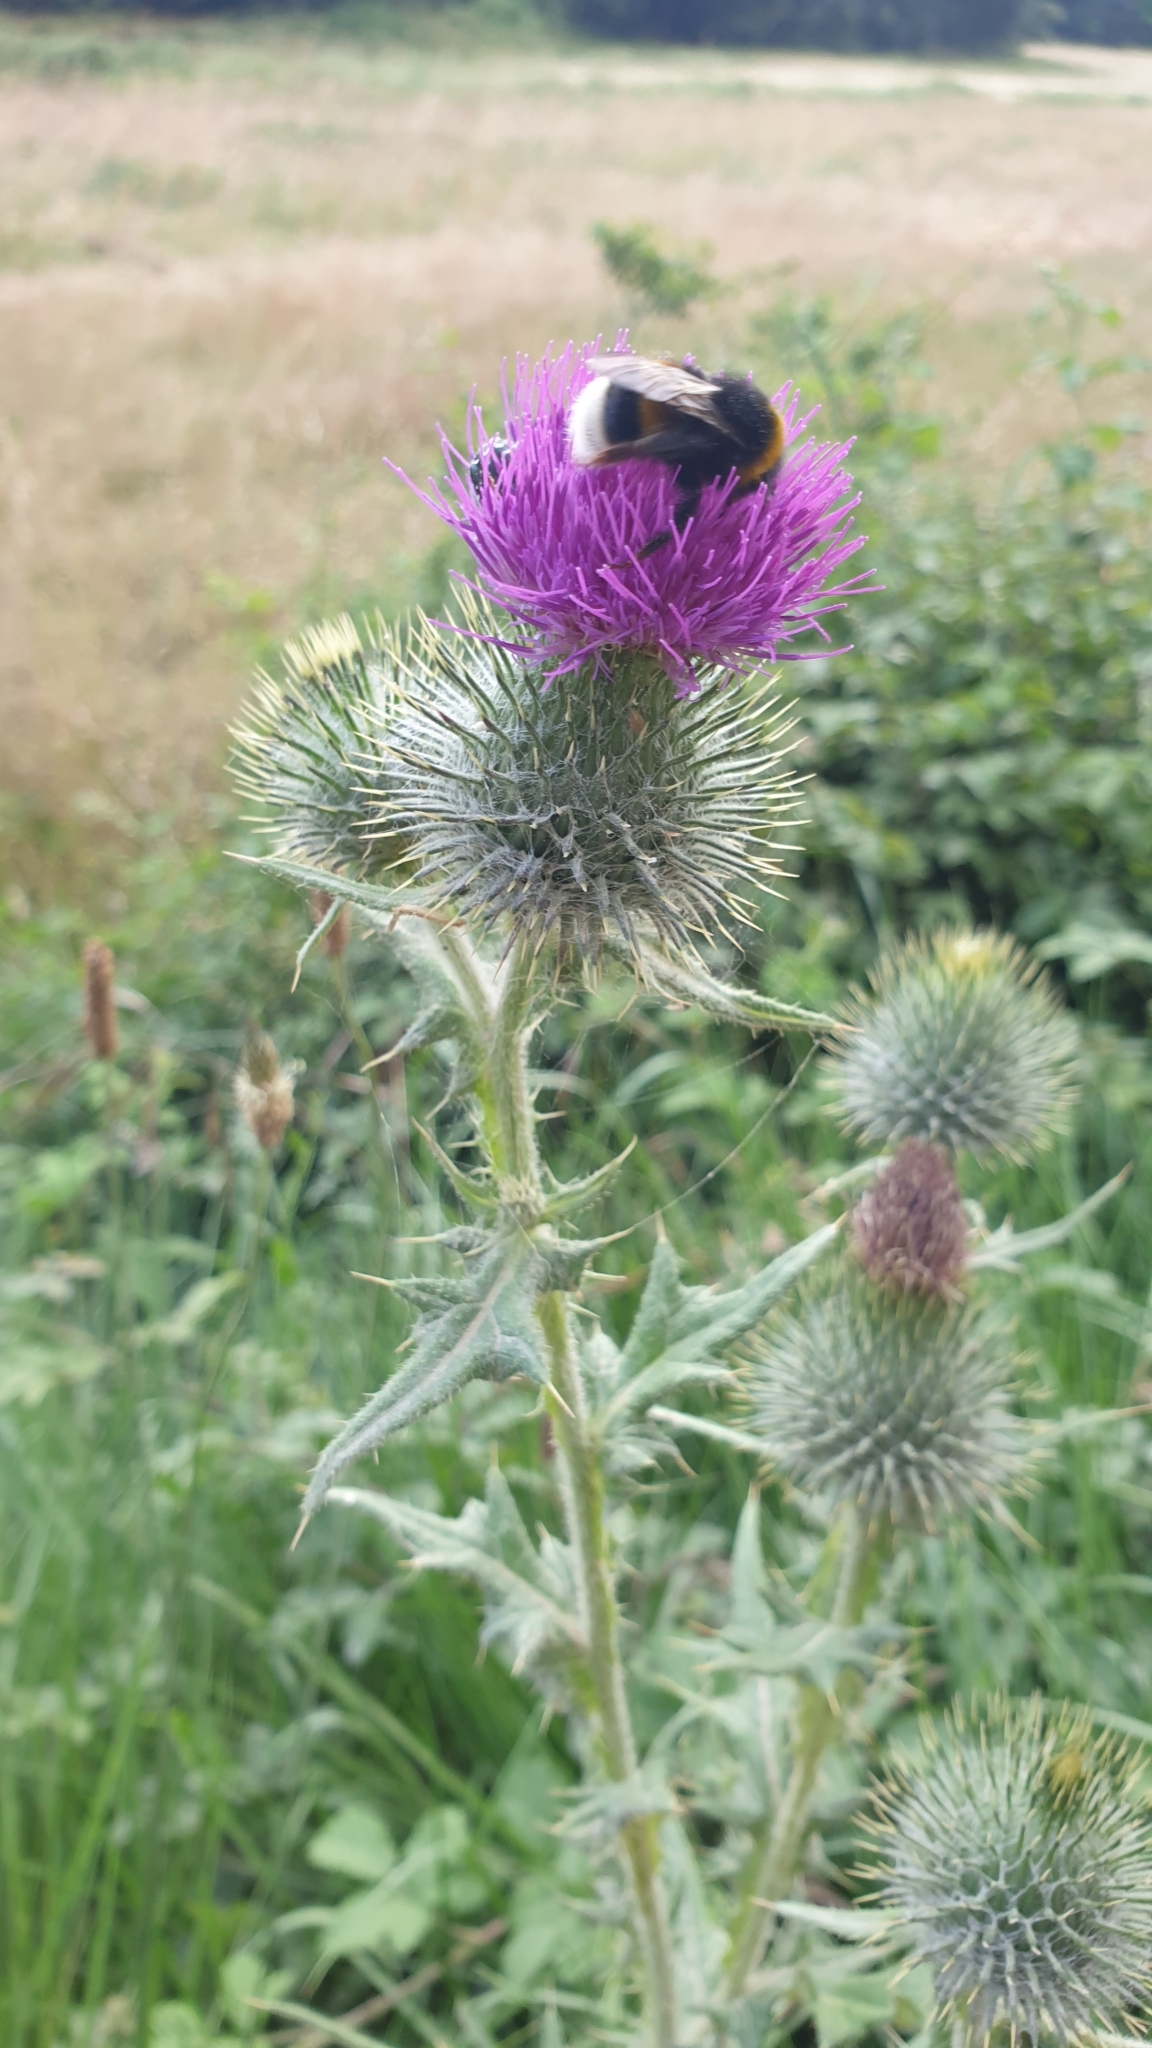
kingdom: Animalia
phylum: Arthropoda
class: Insecta
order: Hymenoptera
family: Apidae
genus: Bombus
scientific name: Bombus terrestris
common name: Buff-tailed bumblebee
